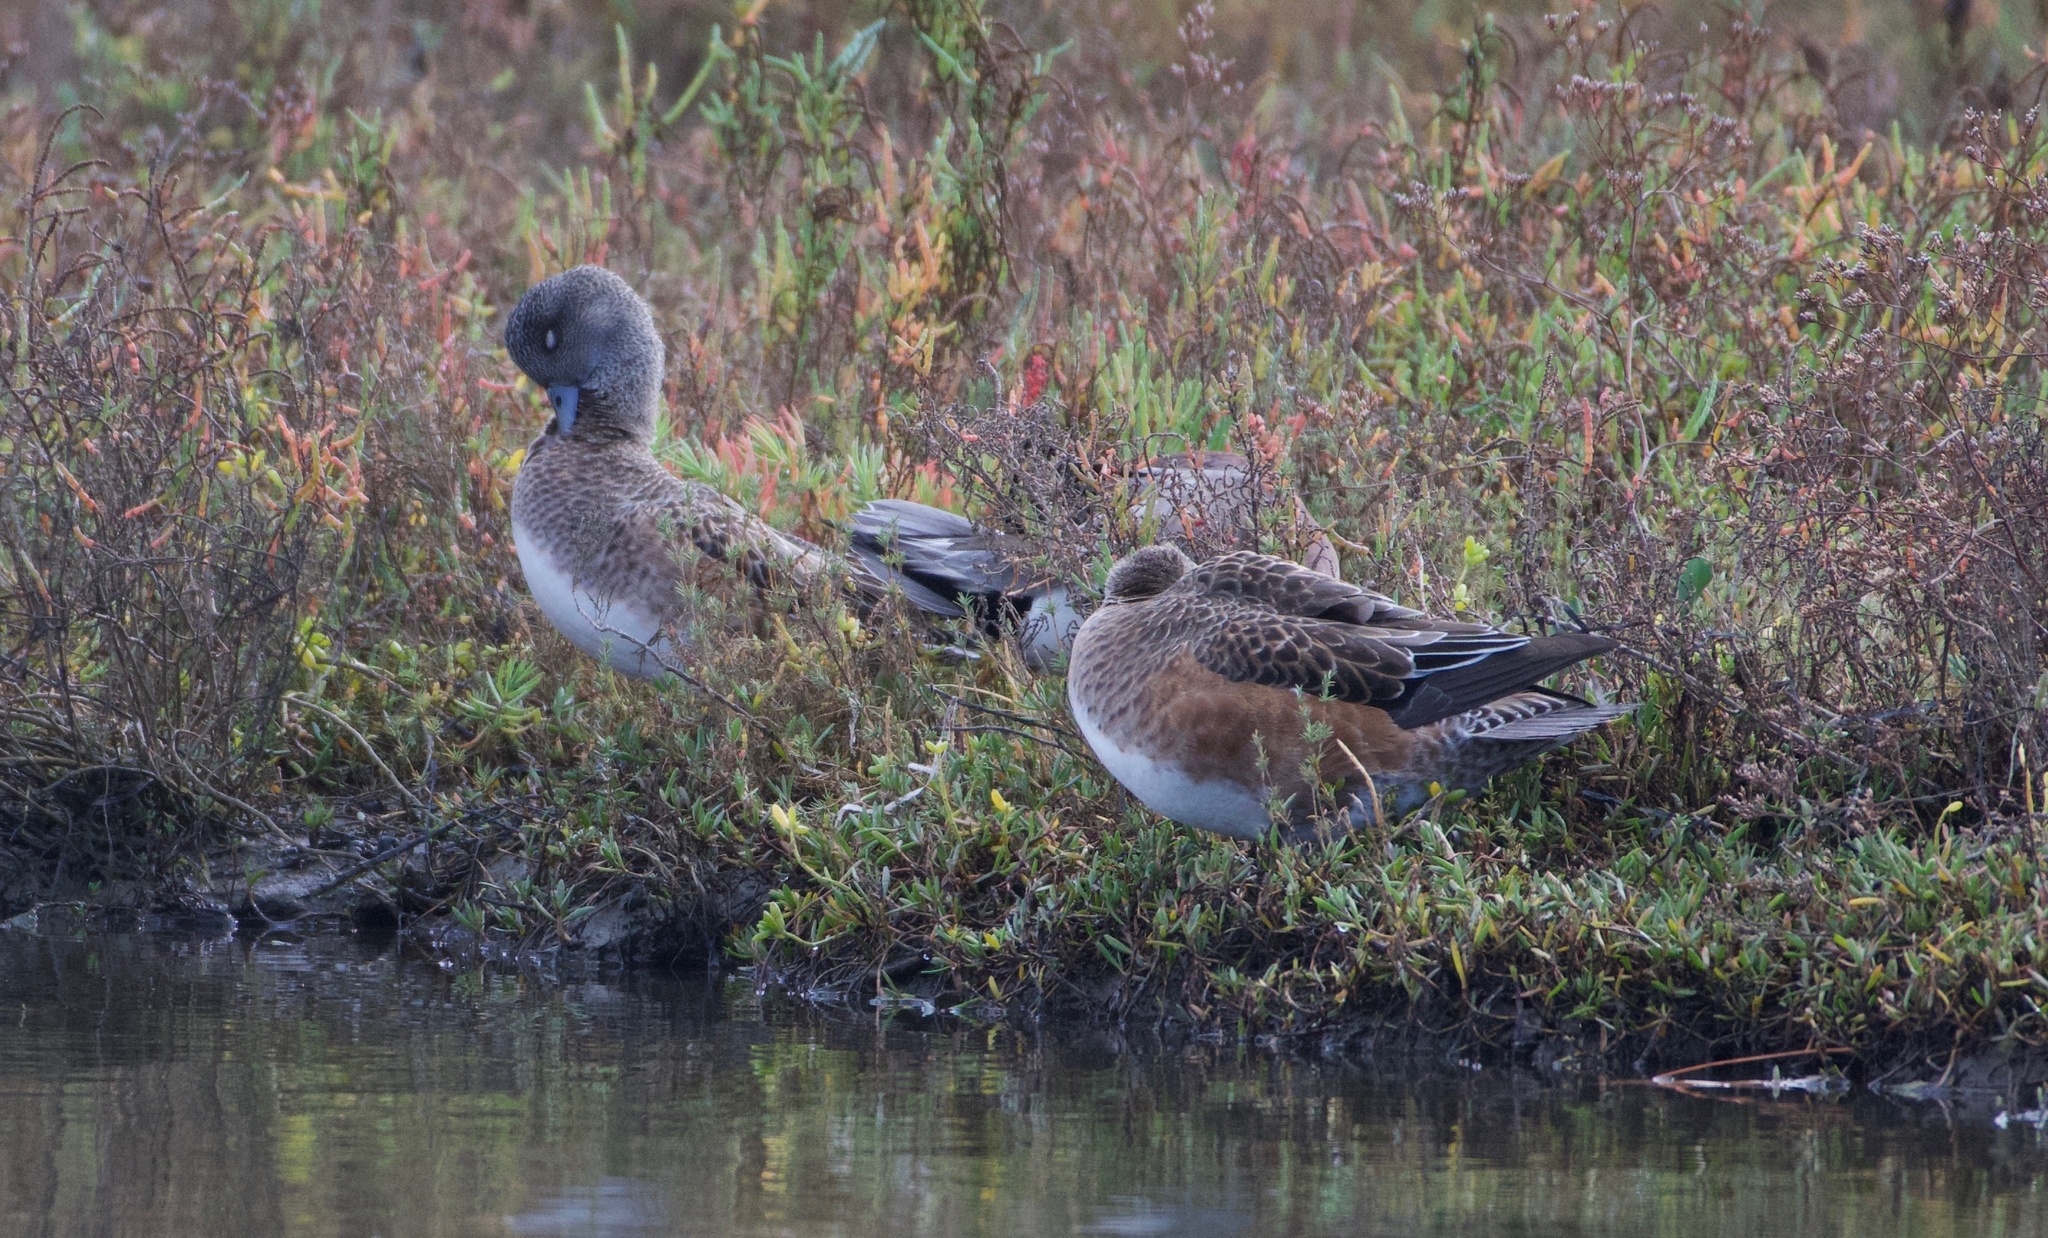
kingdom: Animalia
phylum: Chordata
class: Aves
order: Anseriformes
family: Anatidae
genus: Mareca
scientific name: Mareca americana
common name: American wigeon
